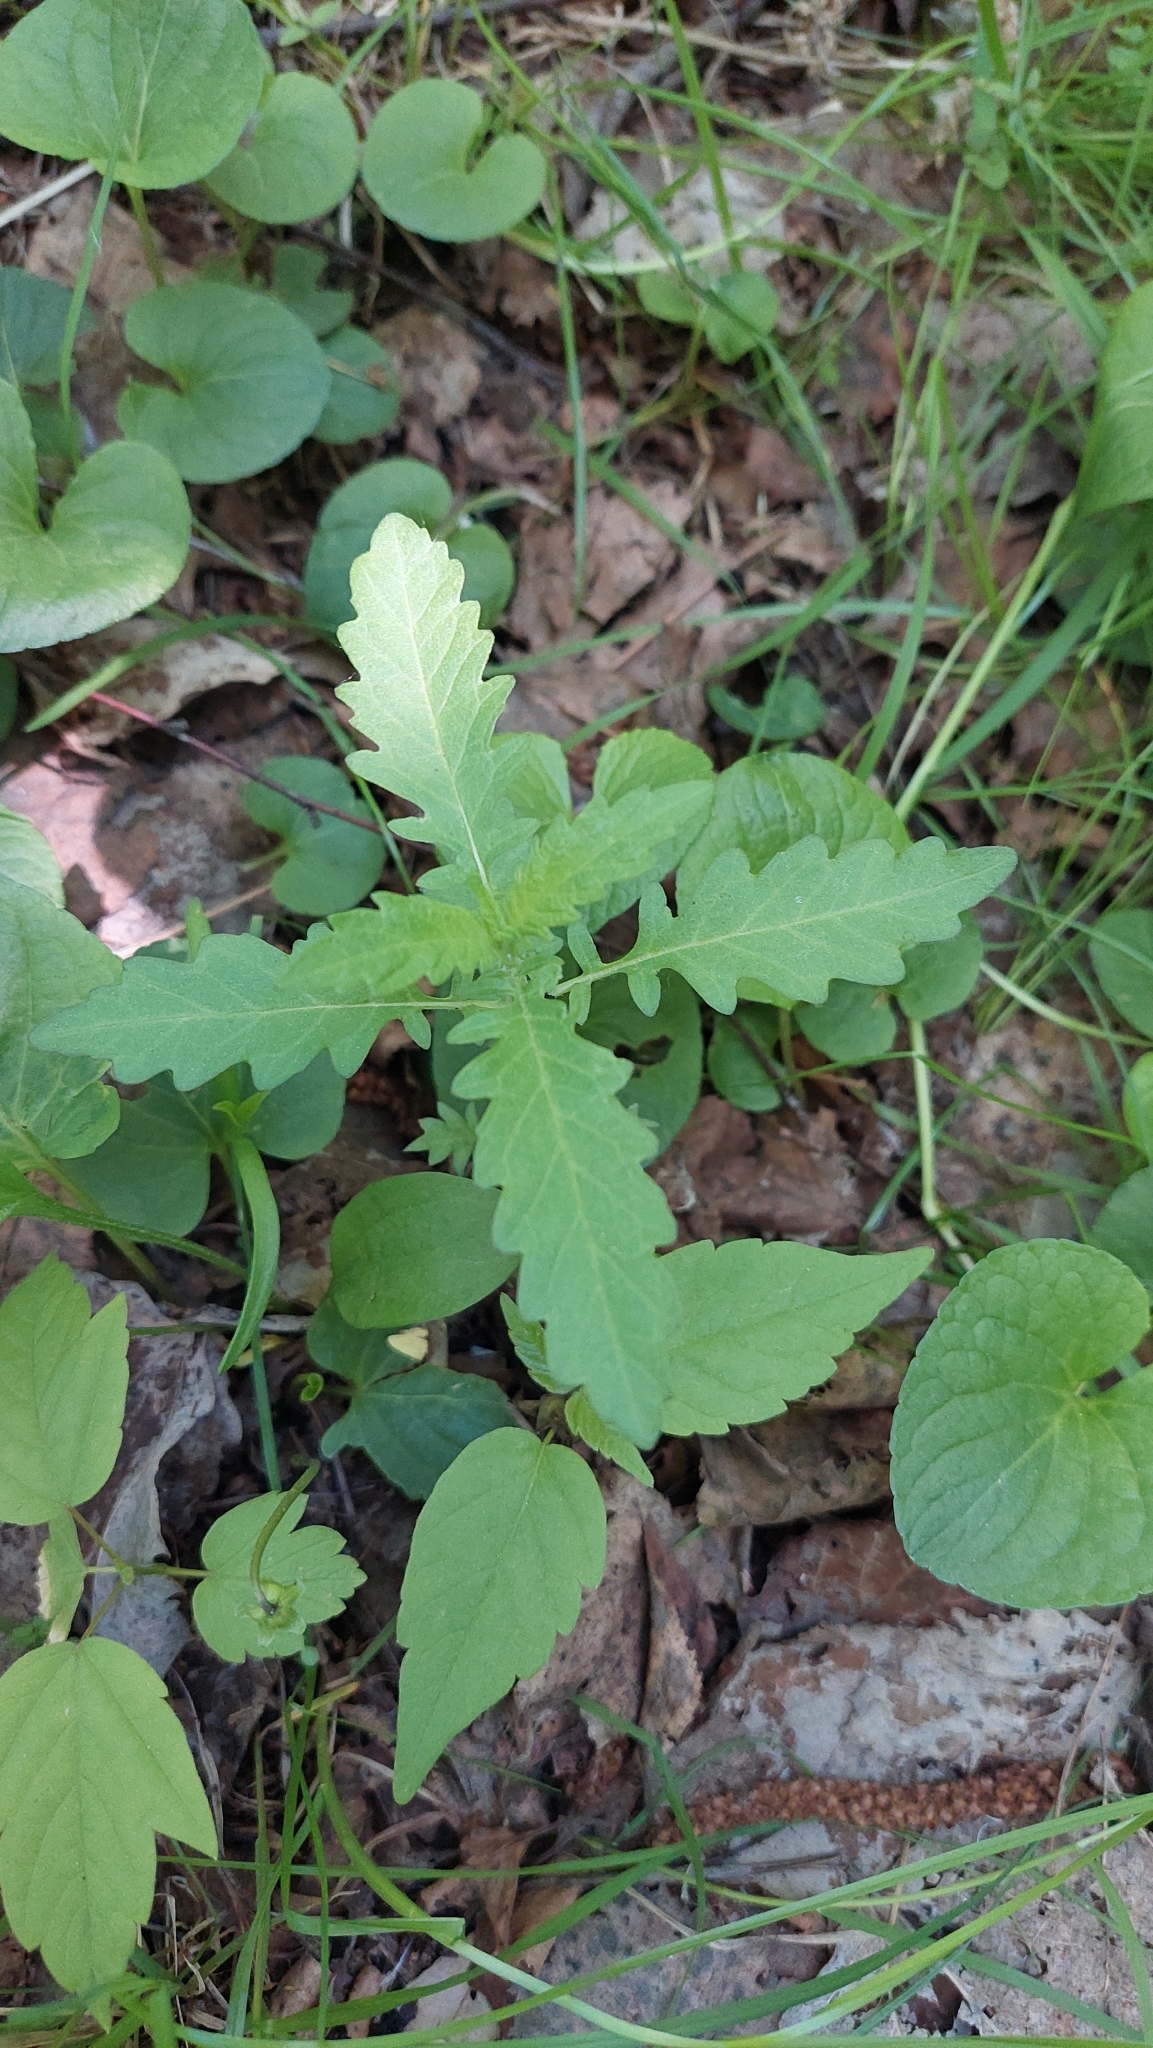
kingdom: Plantae
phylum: Tracheophyta
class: Magnoliopsida
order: Lamiales
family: Lamiaceae
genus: Lycopus
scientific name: Lycopus europaeus
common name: European bugleweed
